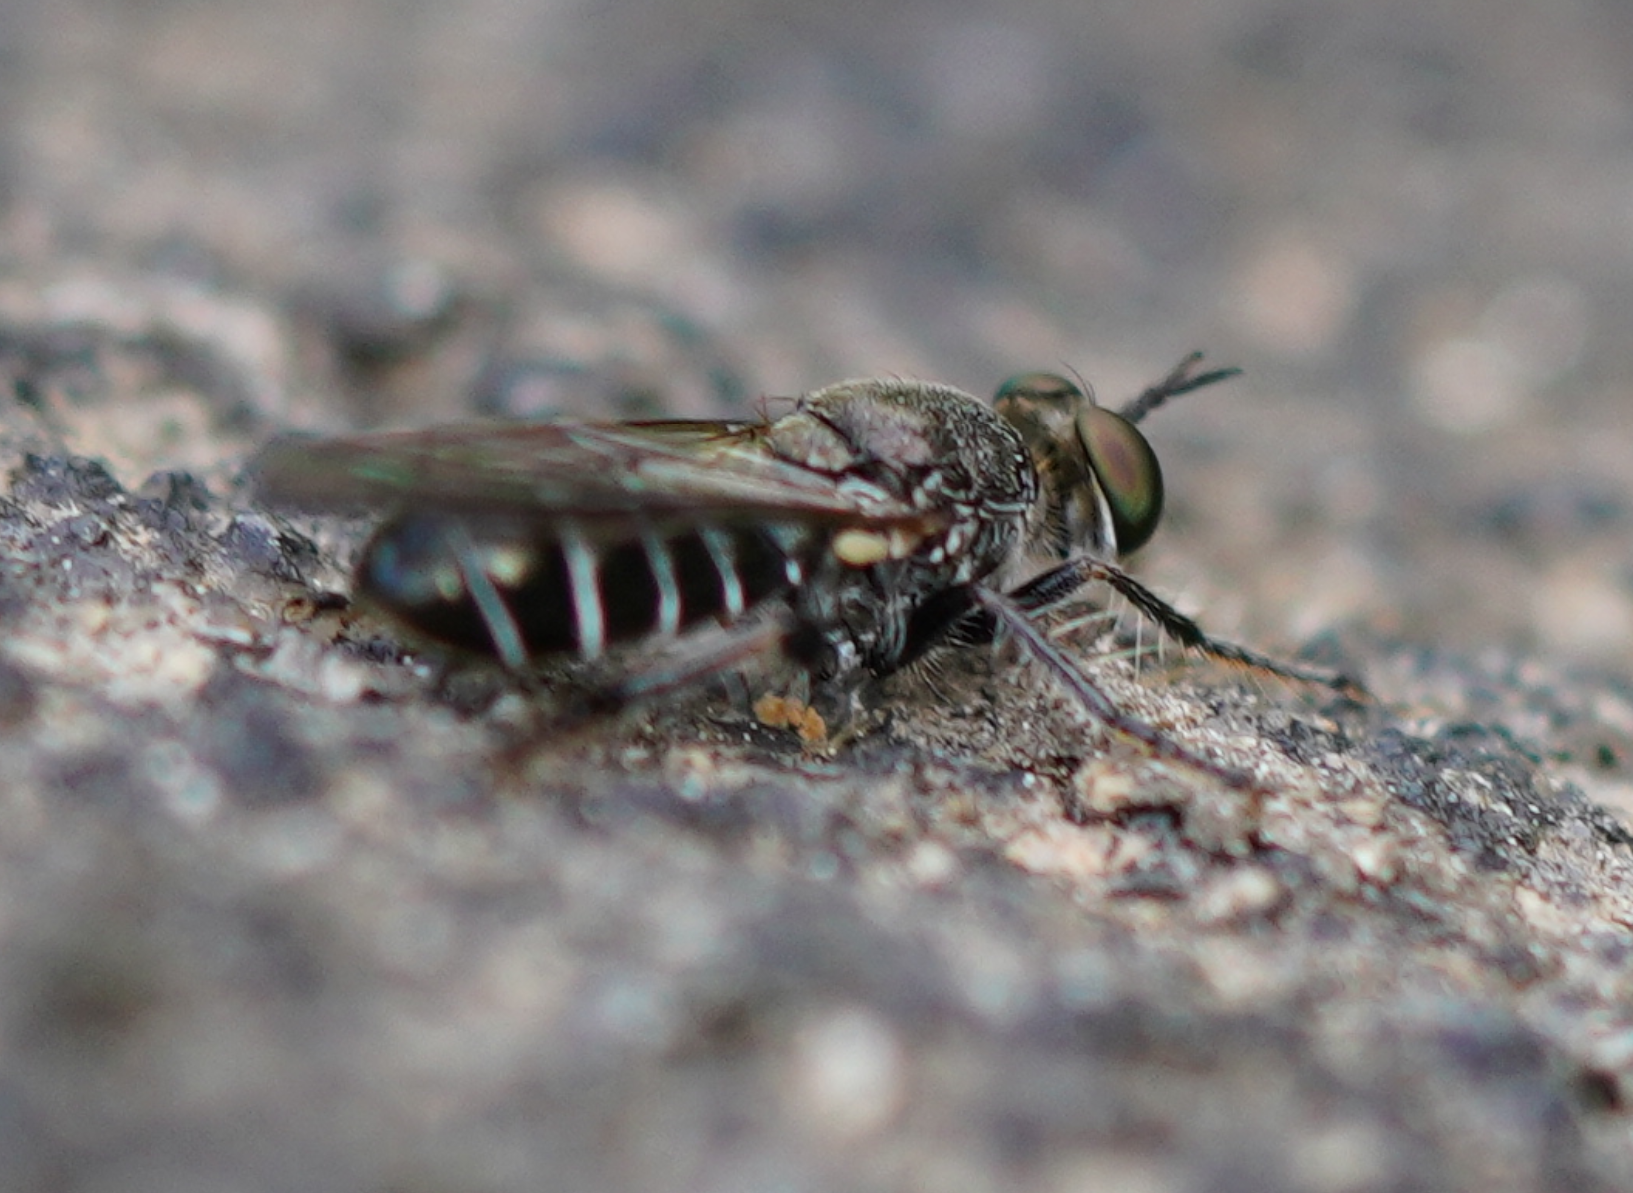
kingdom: Animalia
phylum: Arthropoda
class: Insecta
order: Diptera
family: Asilidae
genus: Atomosia
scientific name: Atomosia puella
